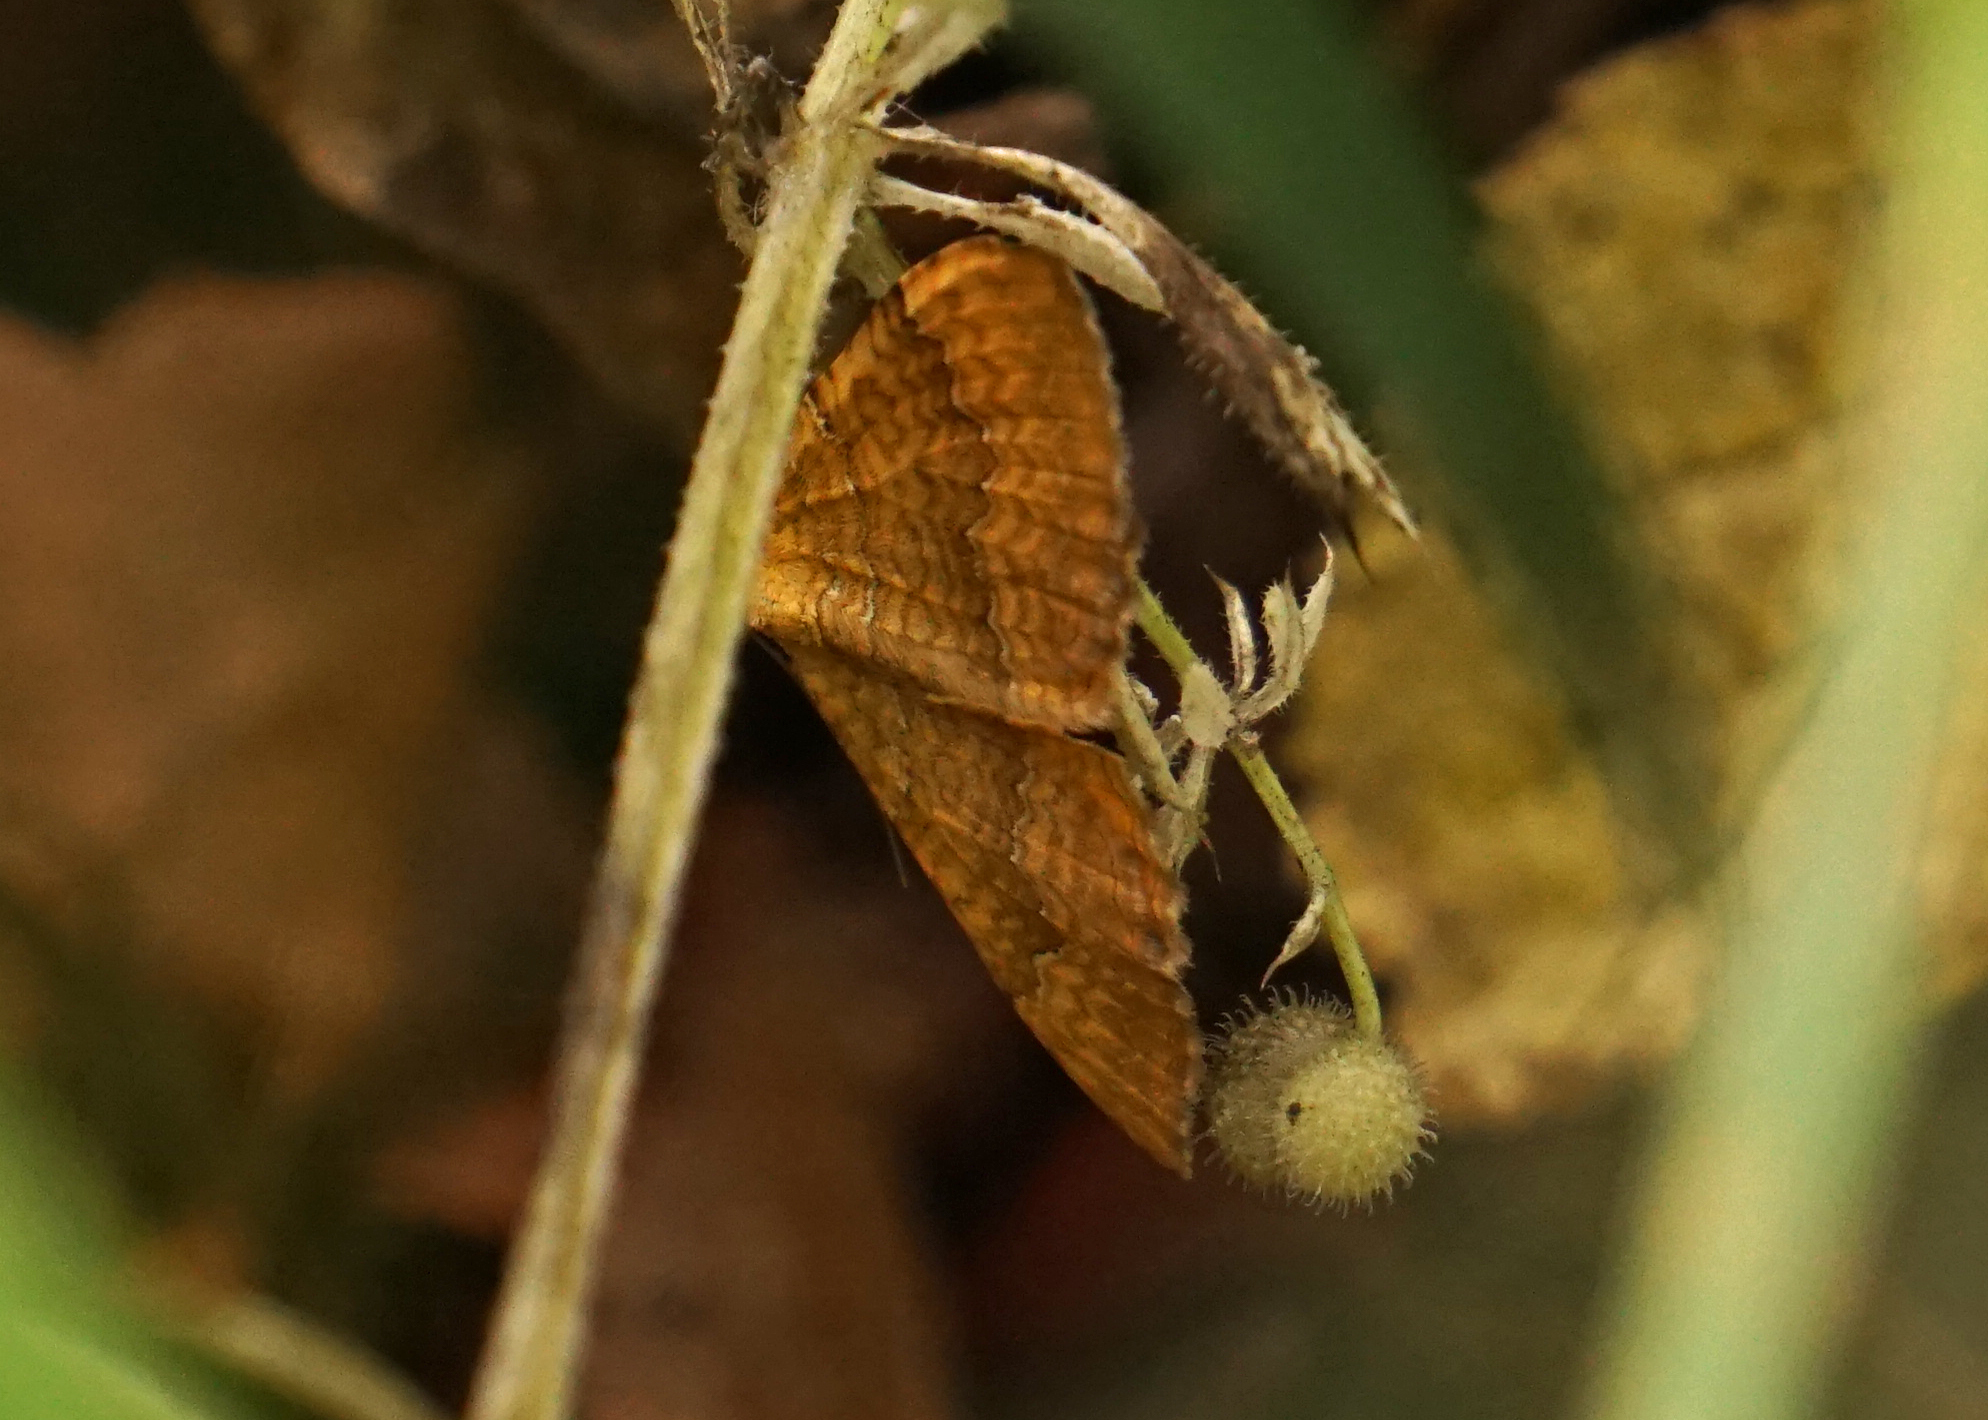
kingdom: Animalia
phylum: Arthropoda
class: Insecta
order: Lepidoptera
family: Geometridae
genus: Camptogramma
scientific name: Camptogramma bilineata
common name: Yellow shell
